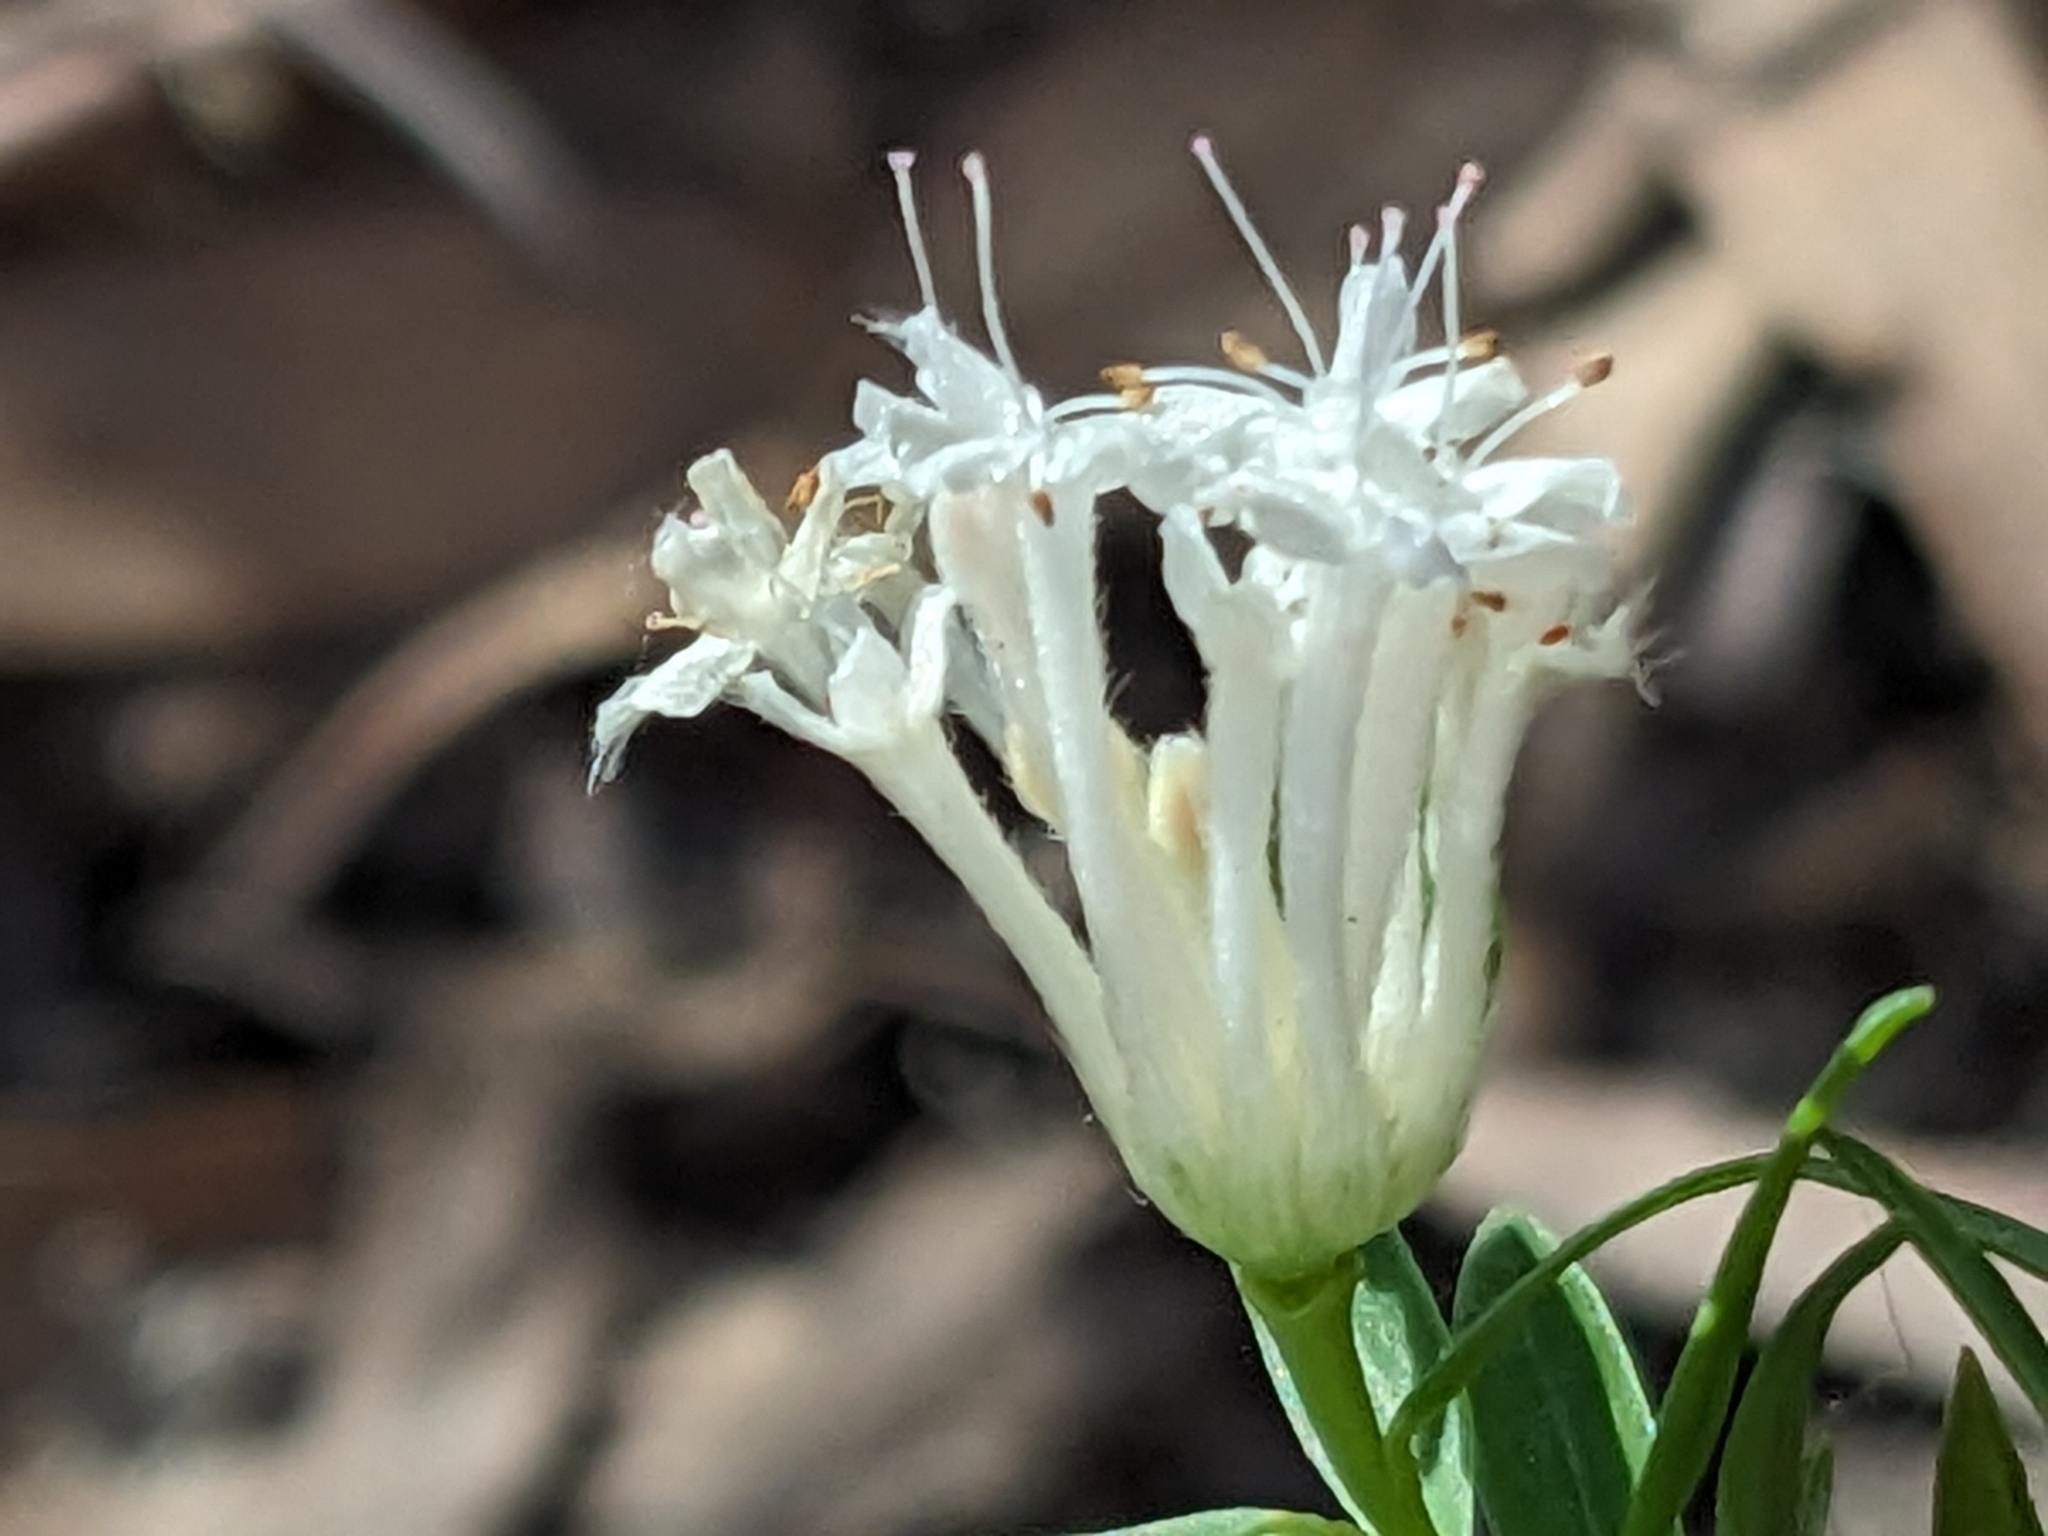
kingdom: Plantae
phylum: Tracheophyta
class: Magnoliopsida
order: Malvales
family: Thymelaeaceae
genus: Pimelea
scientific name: Pimelea linifolia
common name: Queen-of-the-bush
